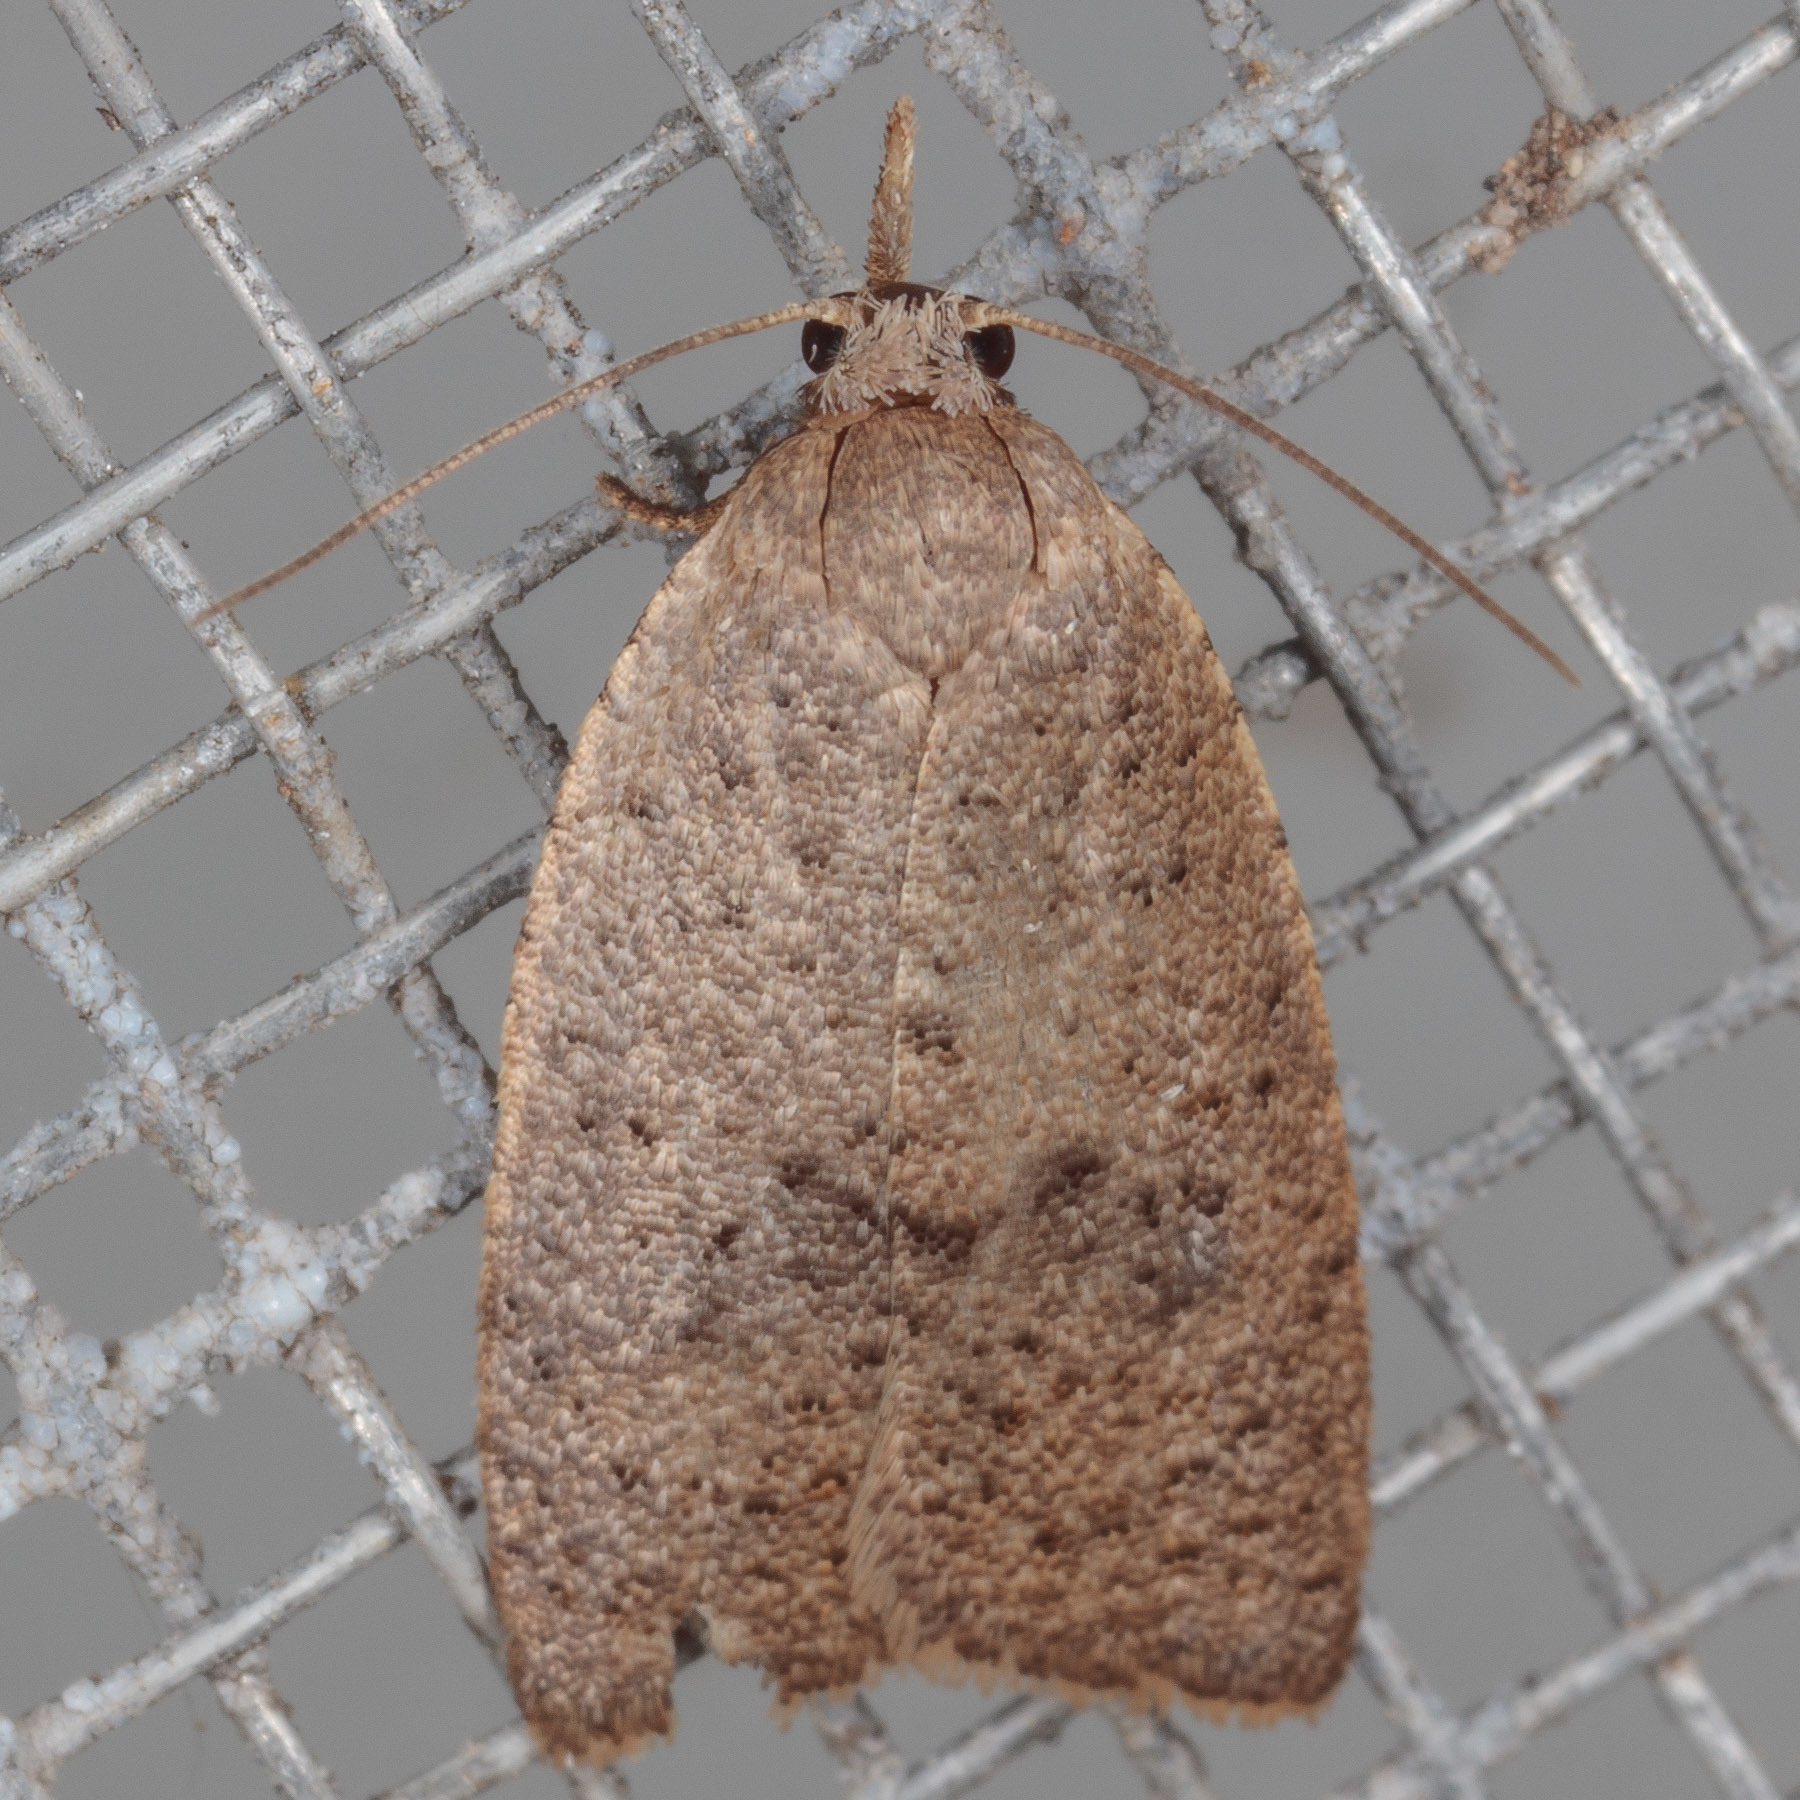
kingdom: Animalia
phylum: Arthropoda
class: Insecta
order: Lepidoptera
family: Tortricidae
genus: Sparganothoides
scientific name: Sparganothoides lentiginosana
